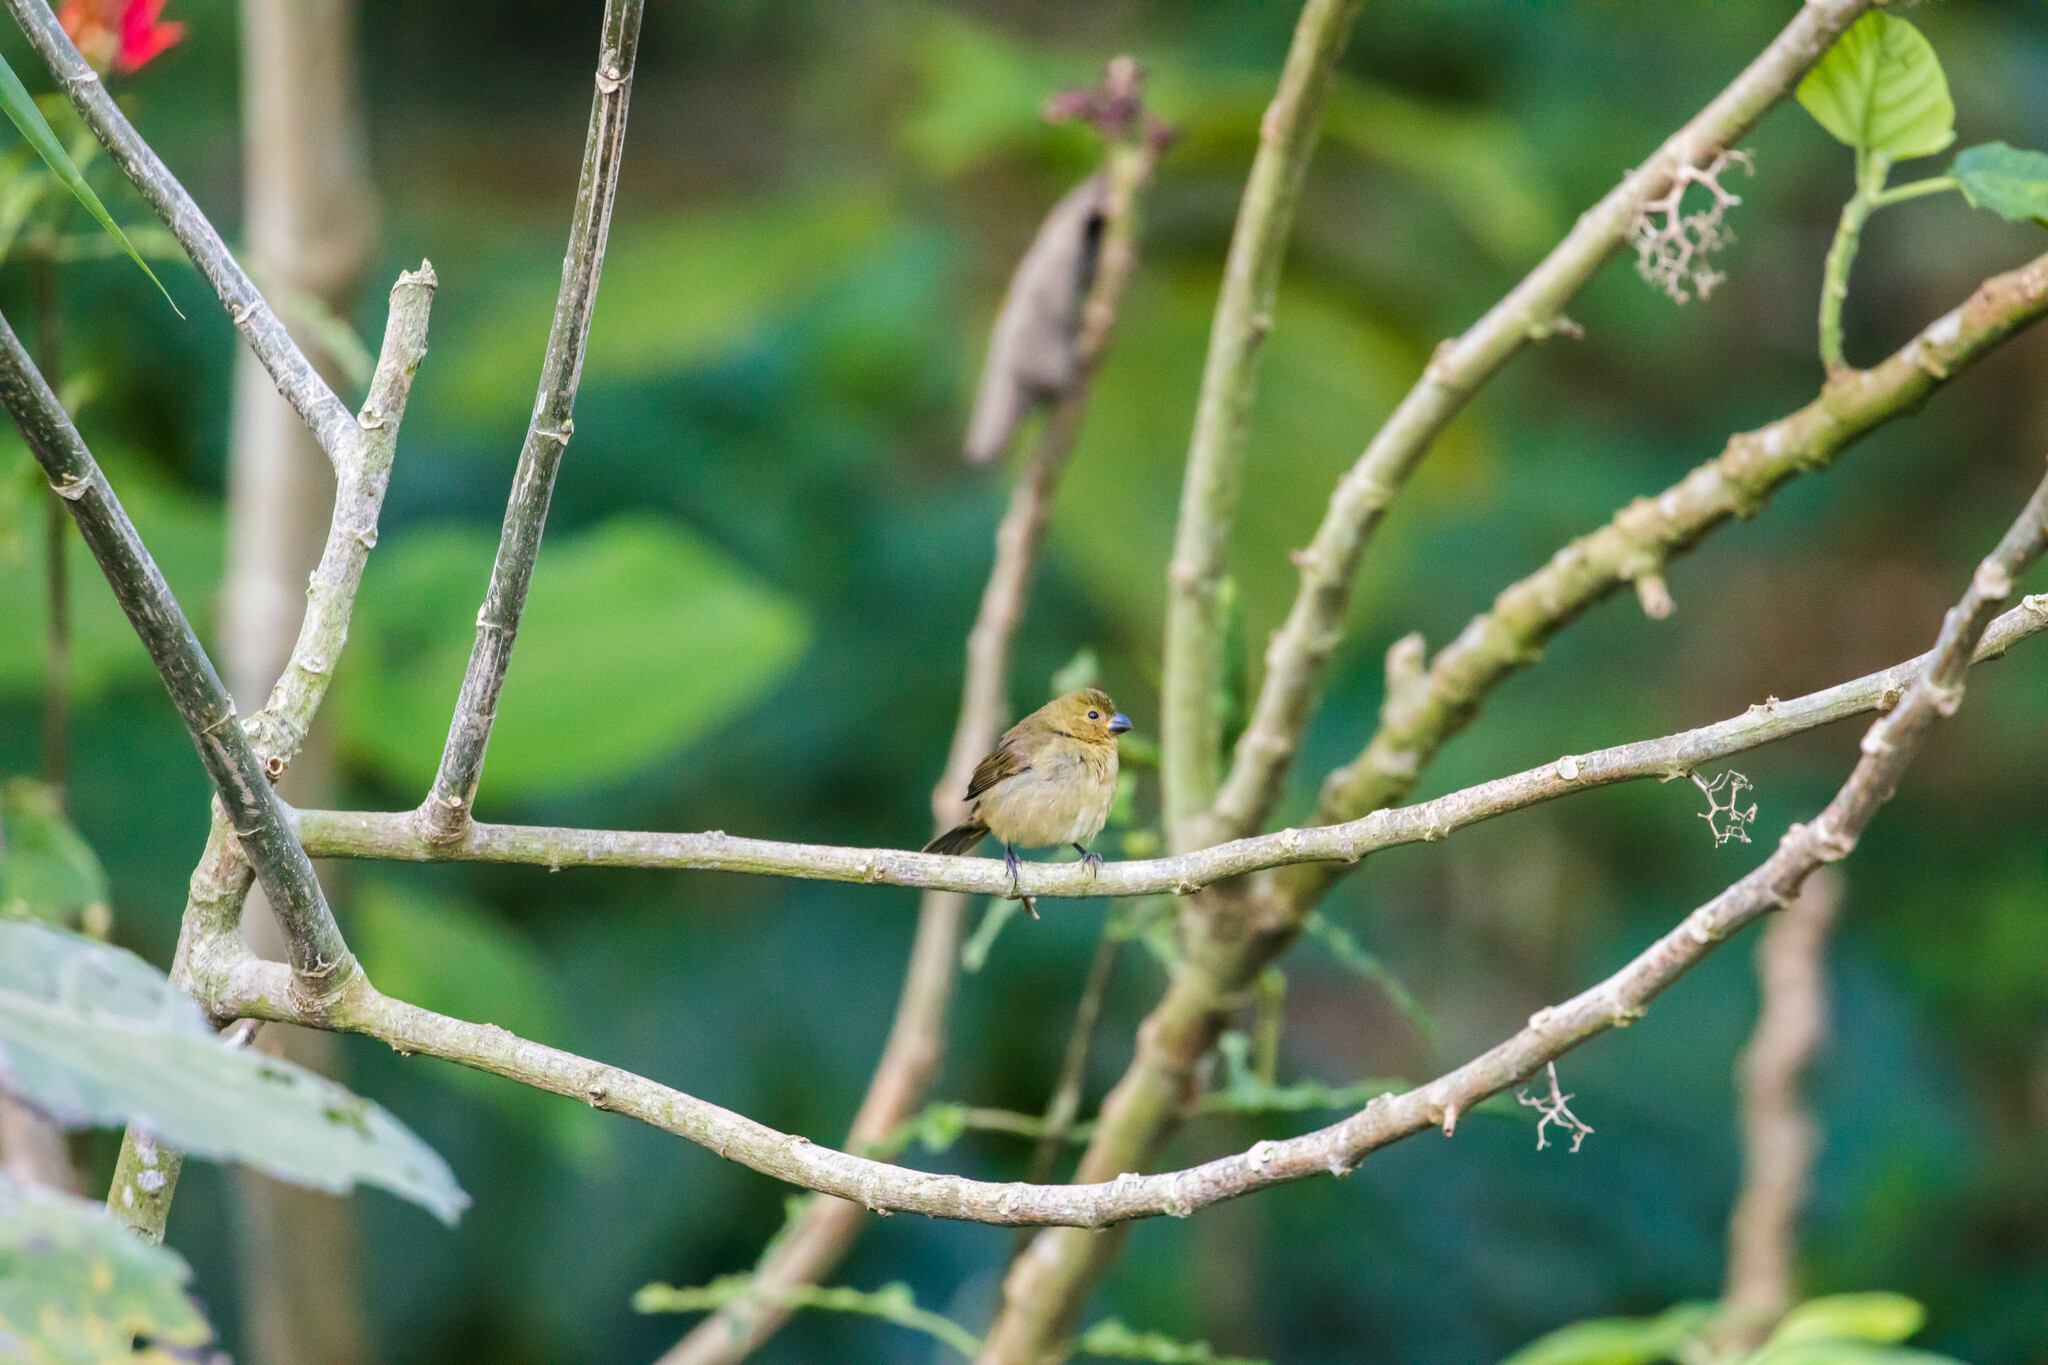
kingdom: Animalia
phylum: Chordata
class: Aves
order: Passeriformes
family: Thraupidae
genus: Sporophila
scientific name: Sporophila corvina
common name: Variable seedeater
